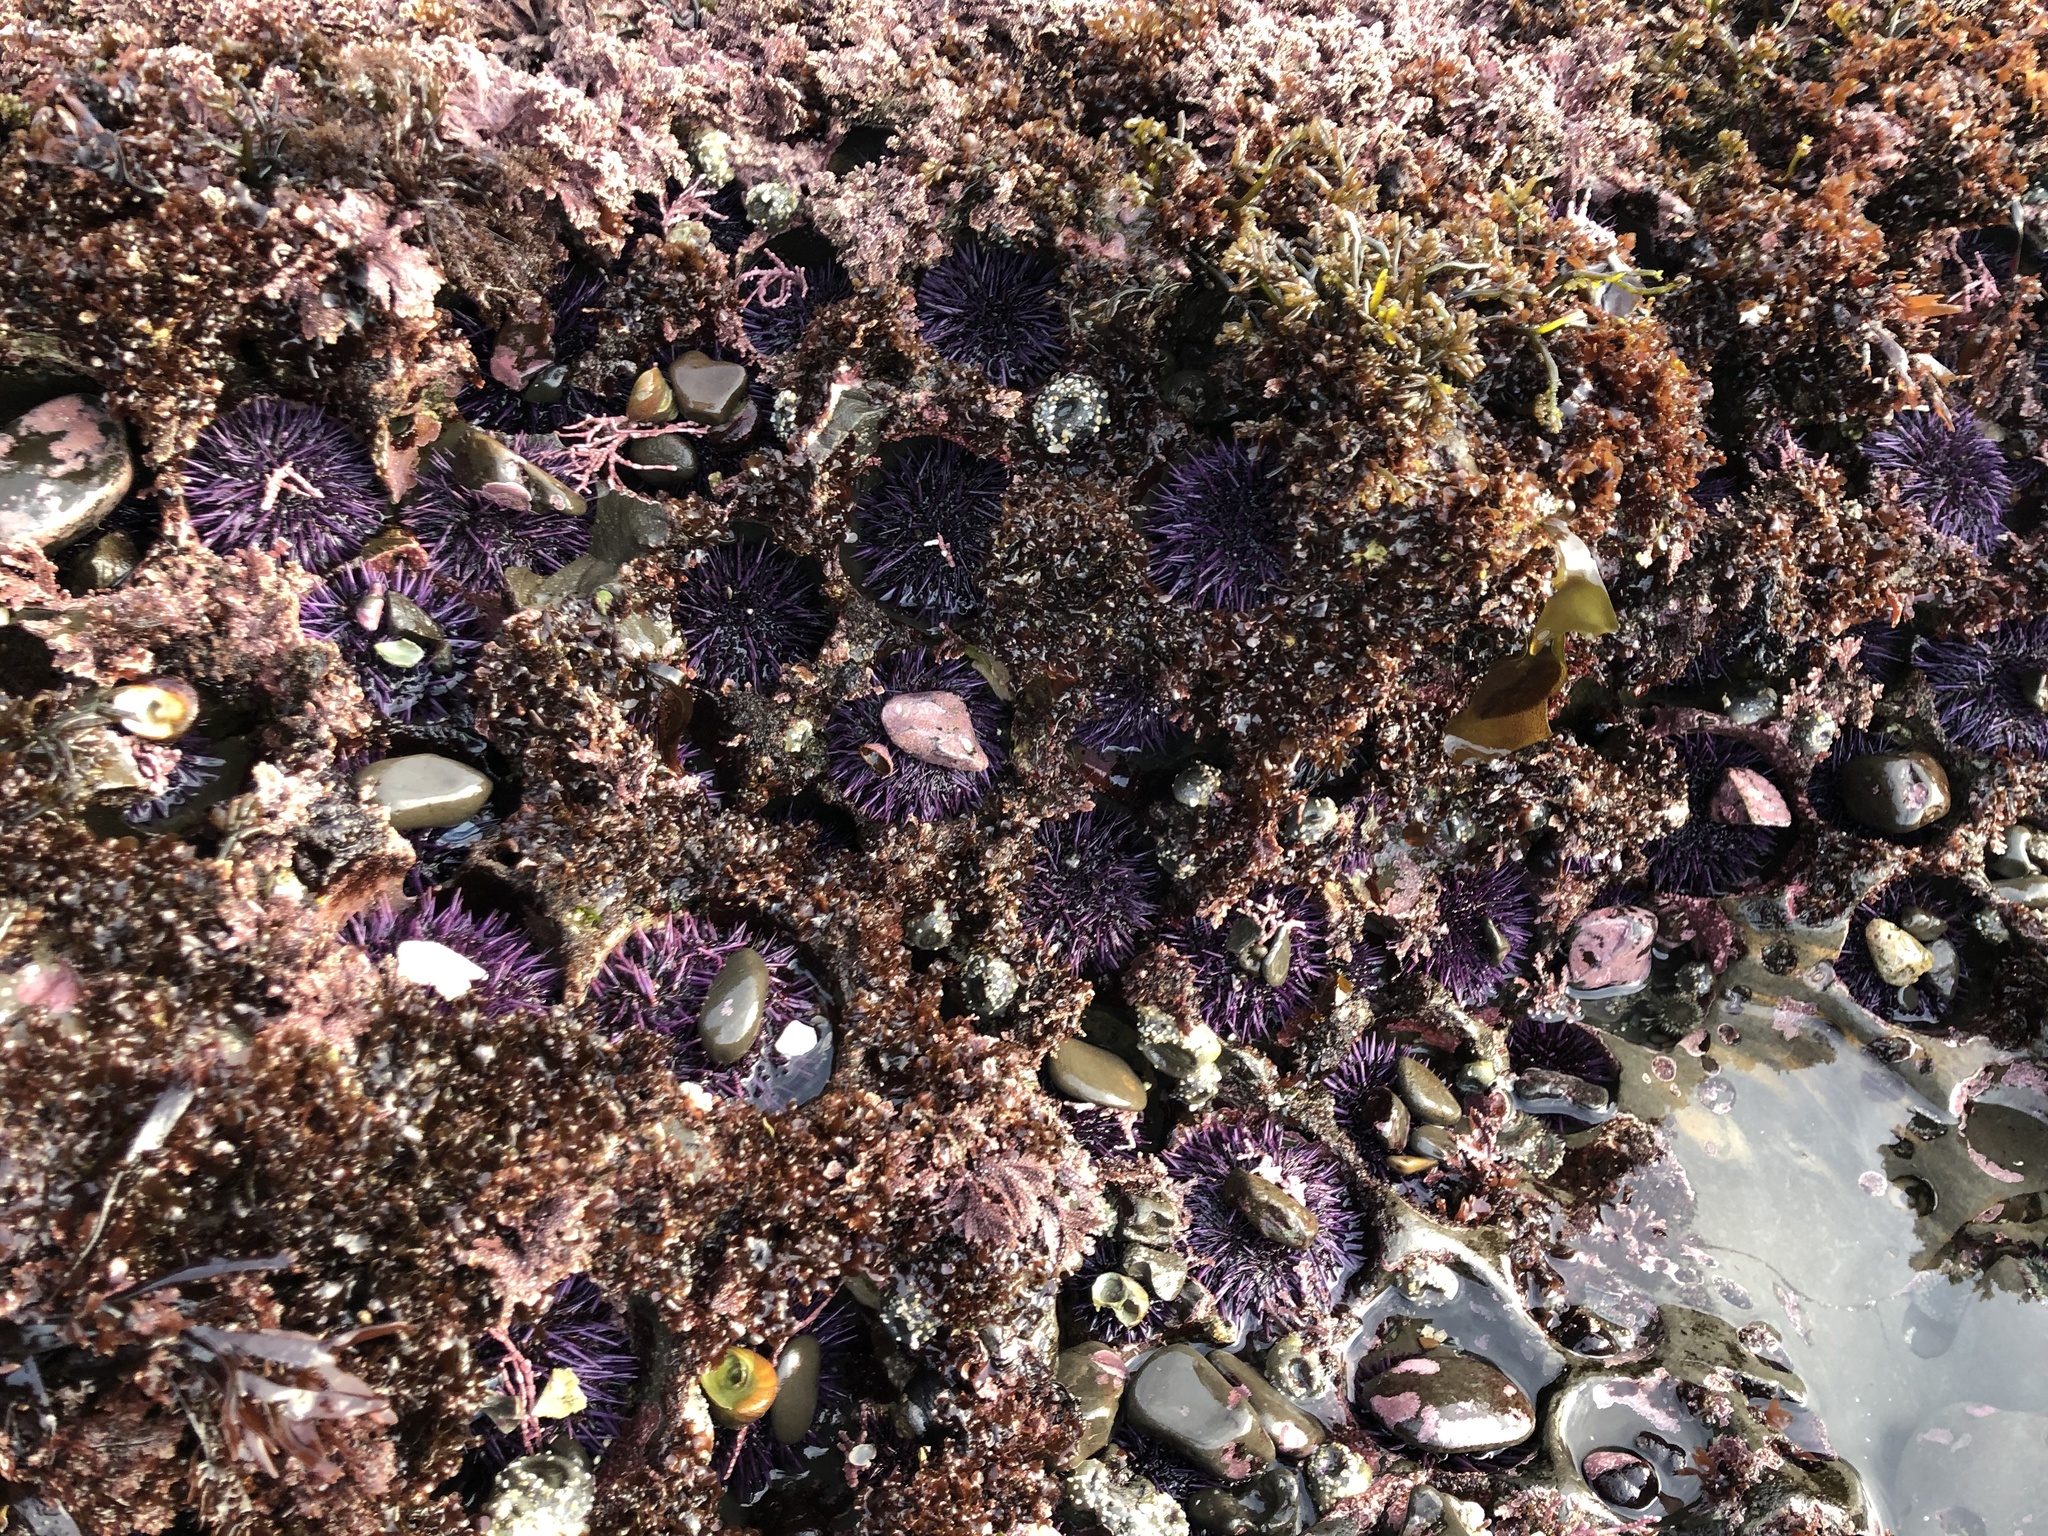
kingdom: Animalia
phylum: Echinodermata
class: Echinoidea
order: Camarodonta
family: Strongylocentrotidae
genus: Strongylocentrotus
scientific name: Strongylocentrotus purpuratus
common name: Purple sea urchin
